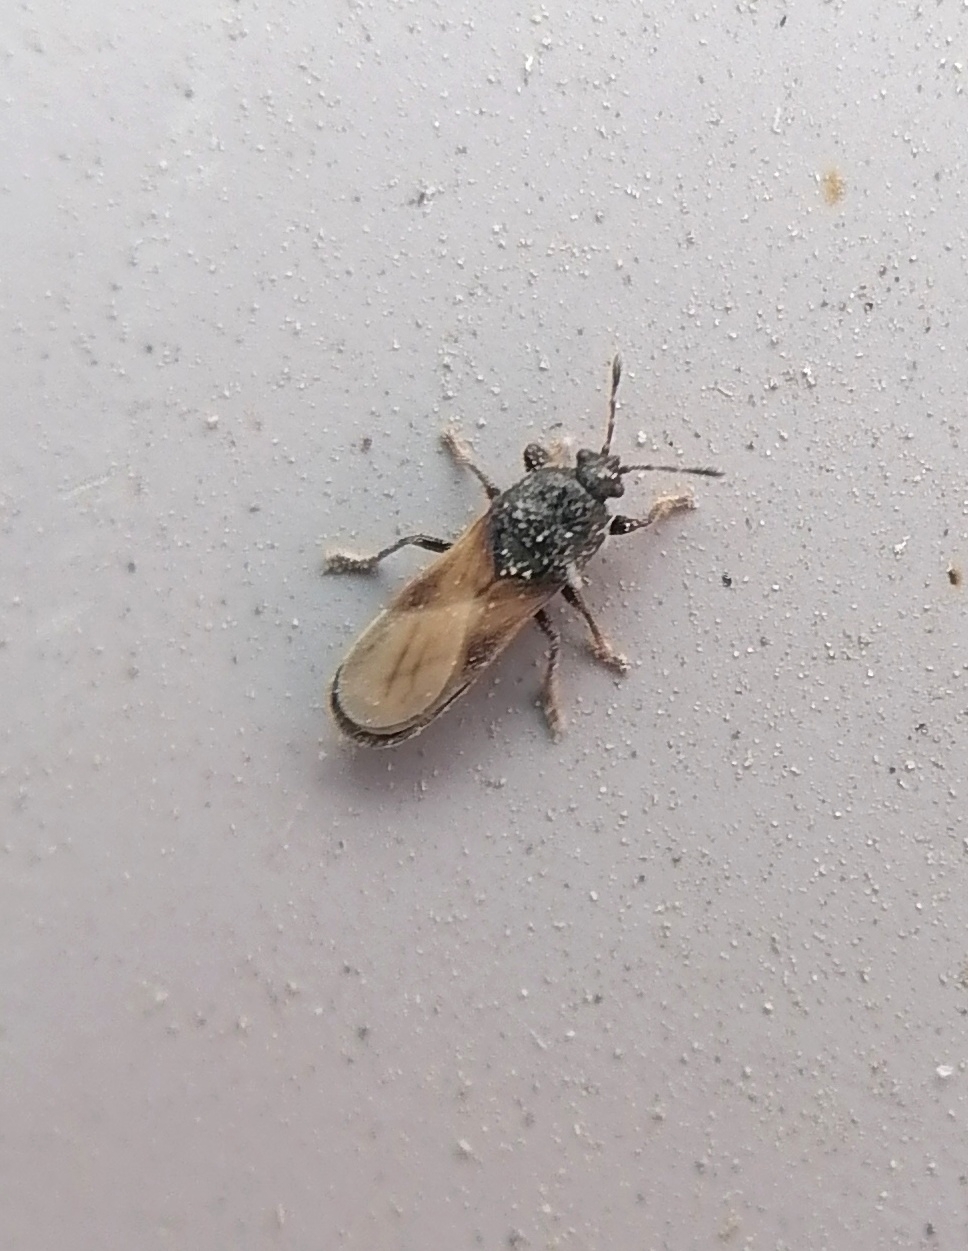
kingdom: Animalia
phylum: Arthropoda
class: Insecta
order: Hemiptera
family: Blissidae
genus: Dimorphopterus
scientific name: Dimorphopterus spinolae
